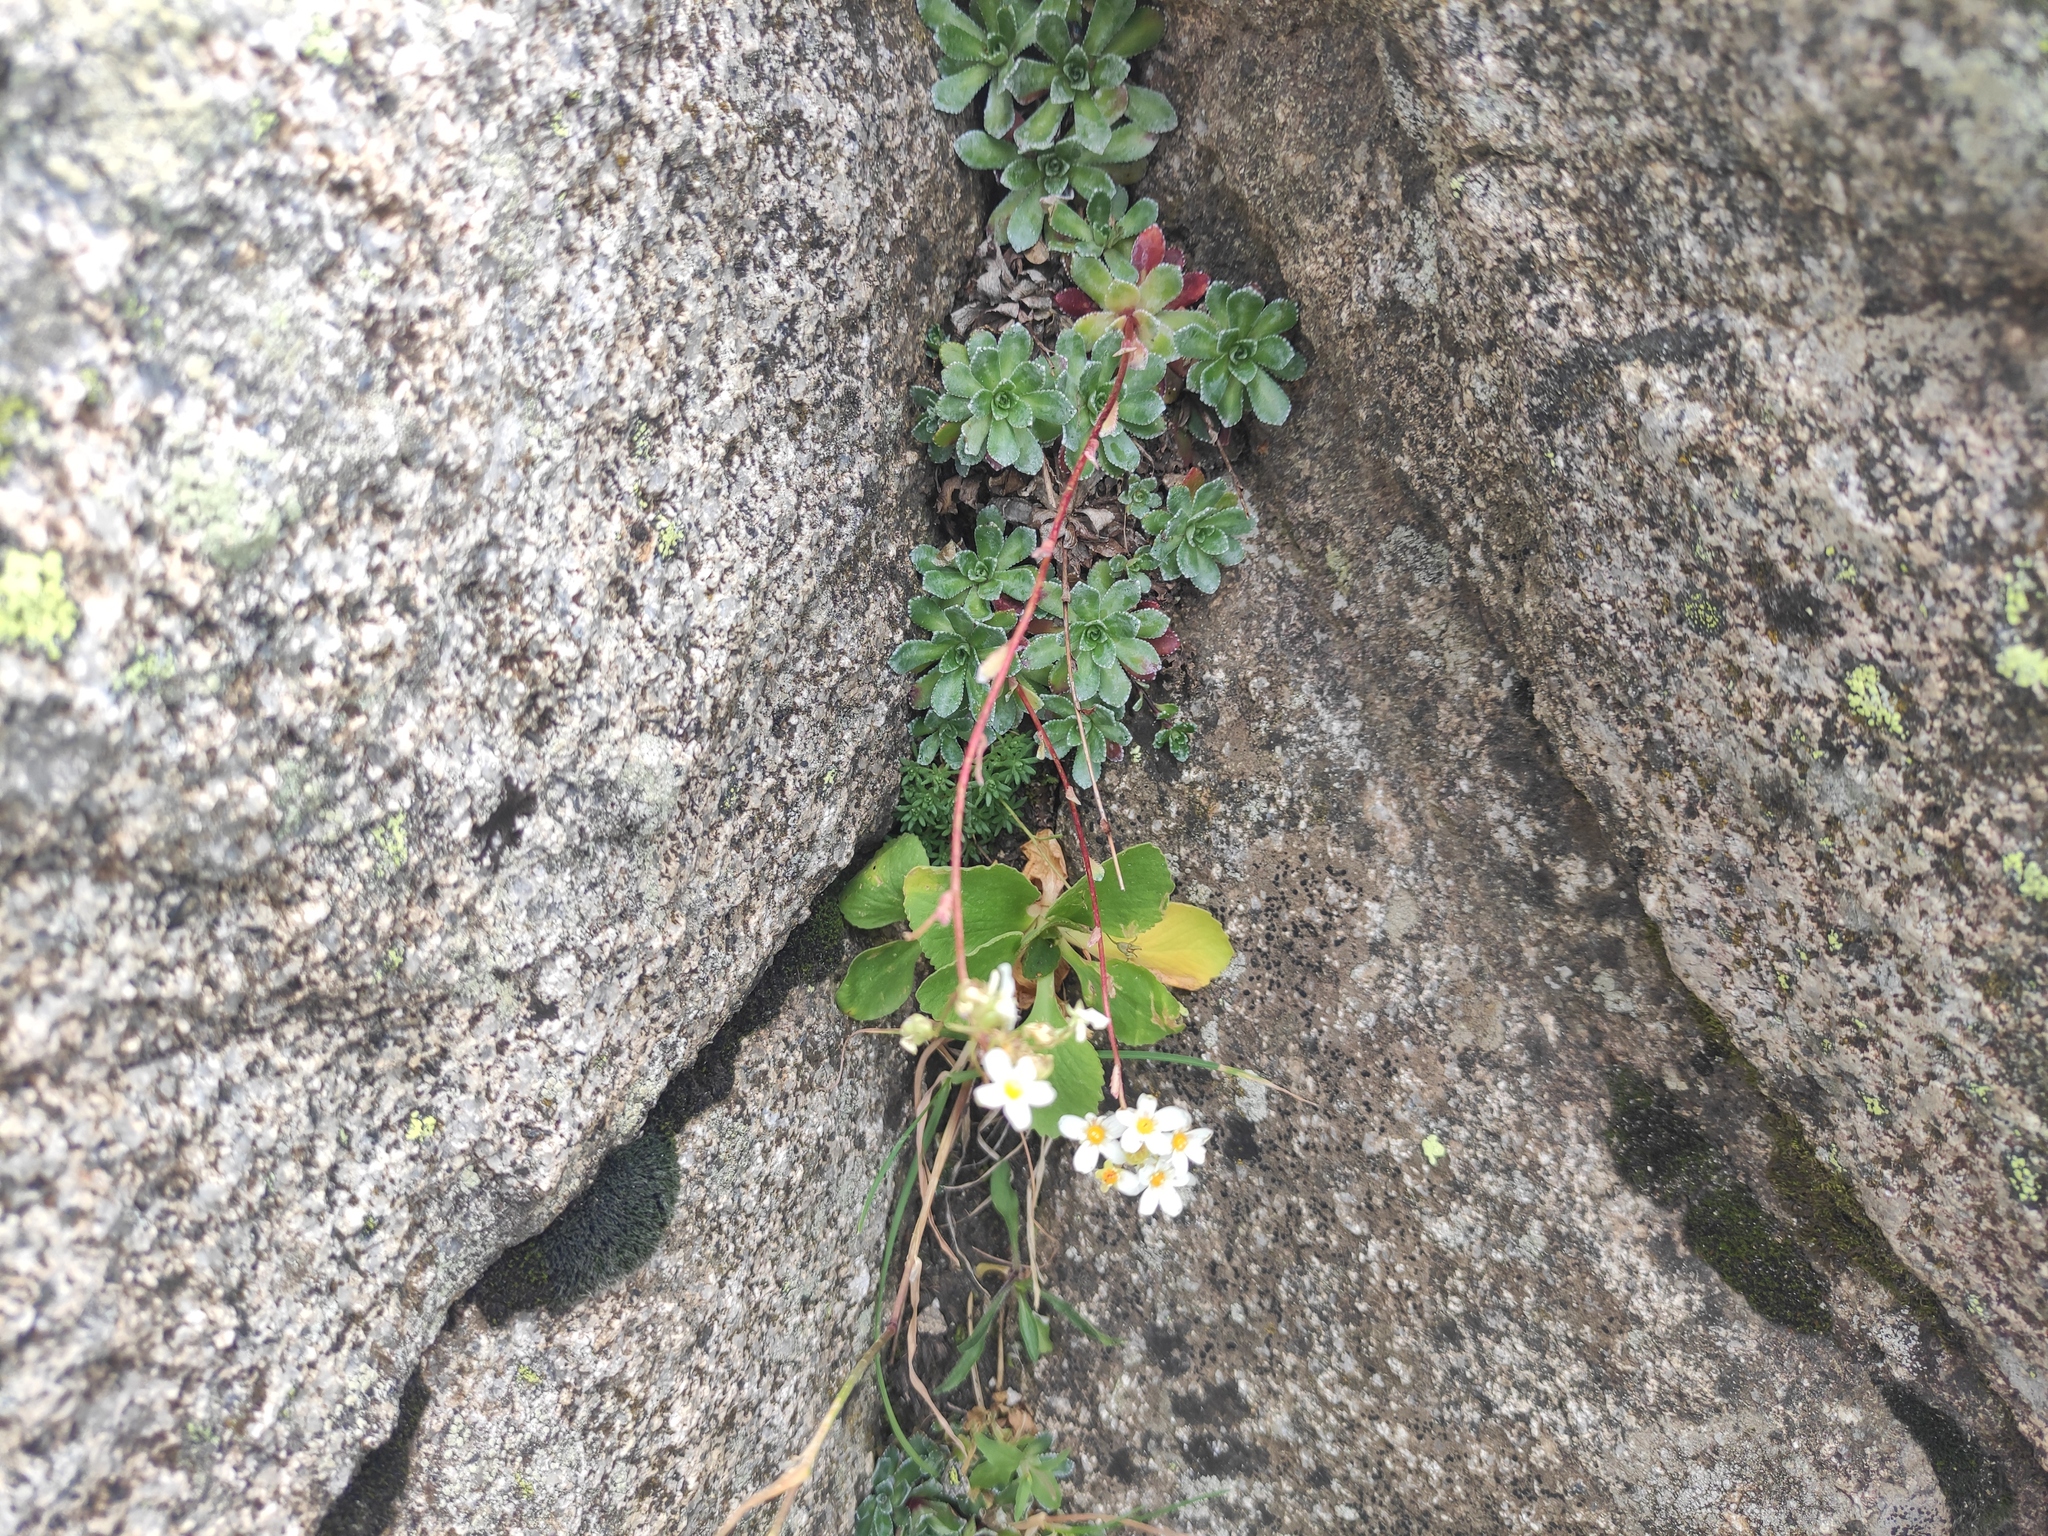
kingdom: Plantae
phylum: Tracheophyta
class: Magnoliopsida
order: Saxifragales
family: Saxifragaceae
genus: Saxifraga
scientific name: Saxifraga paniculata
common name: Livelong saxifrage
